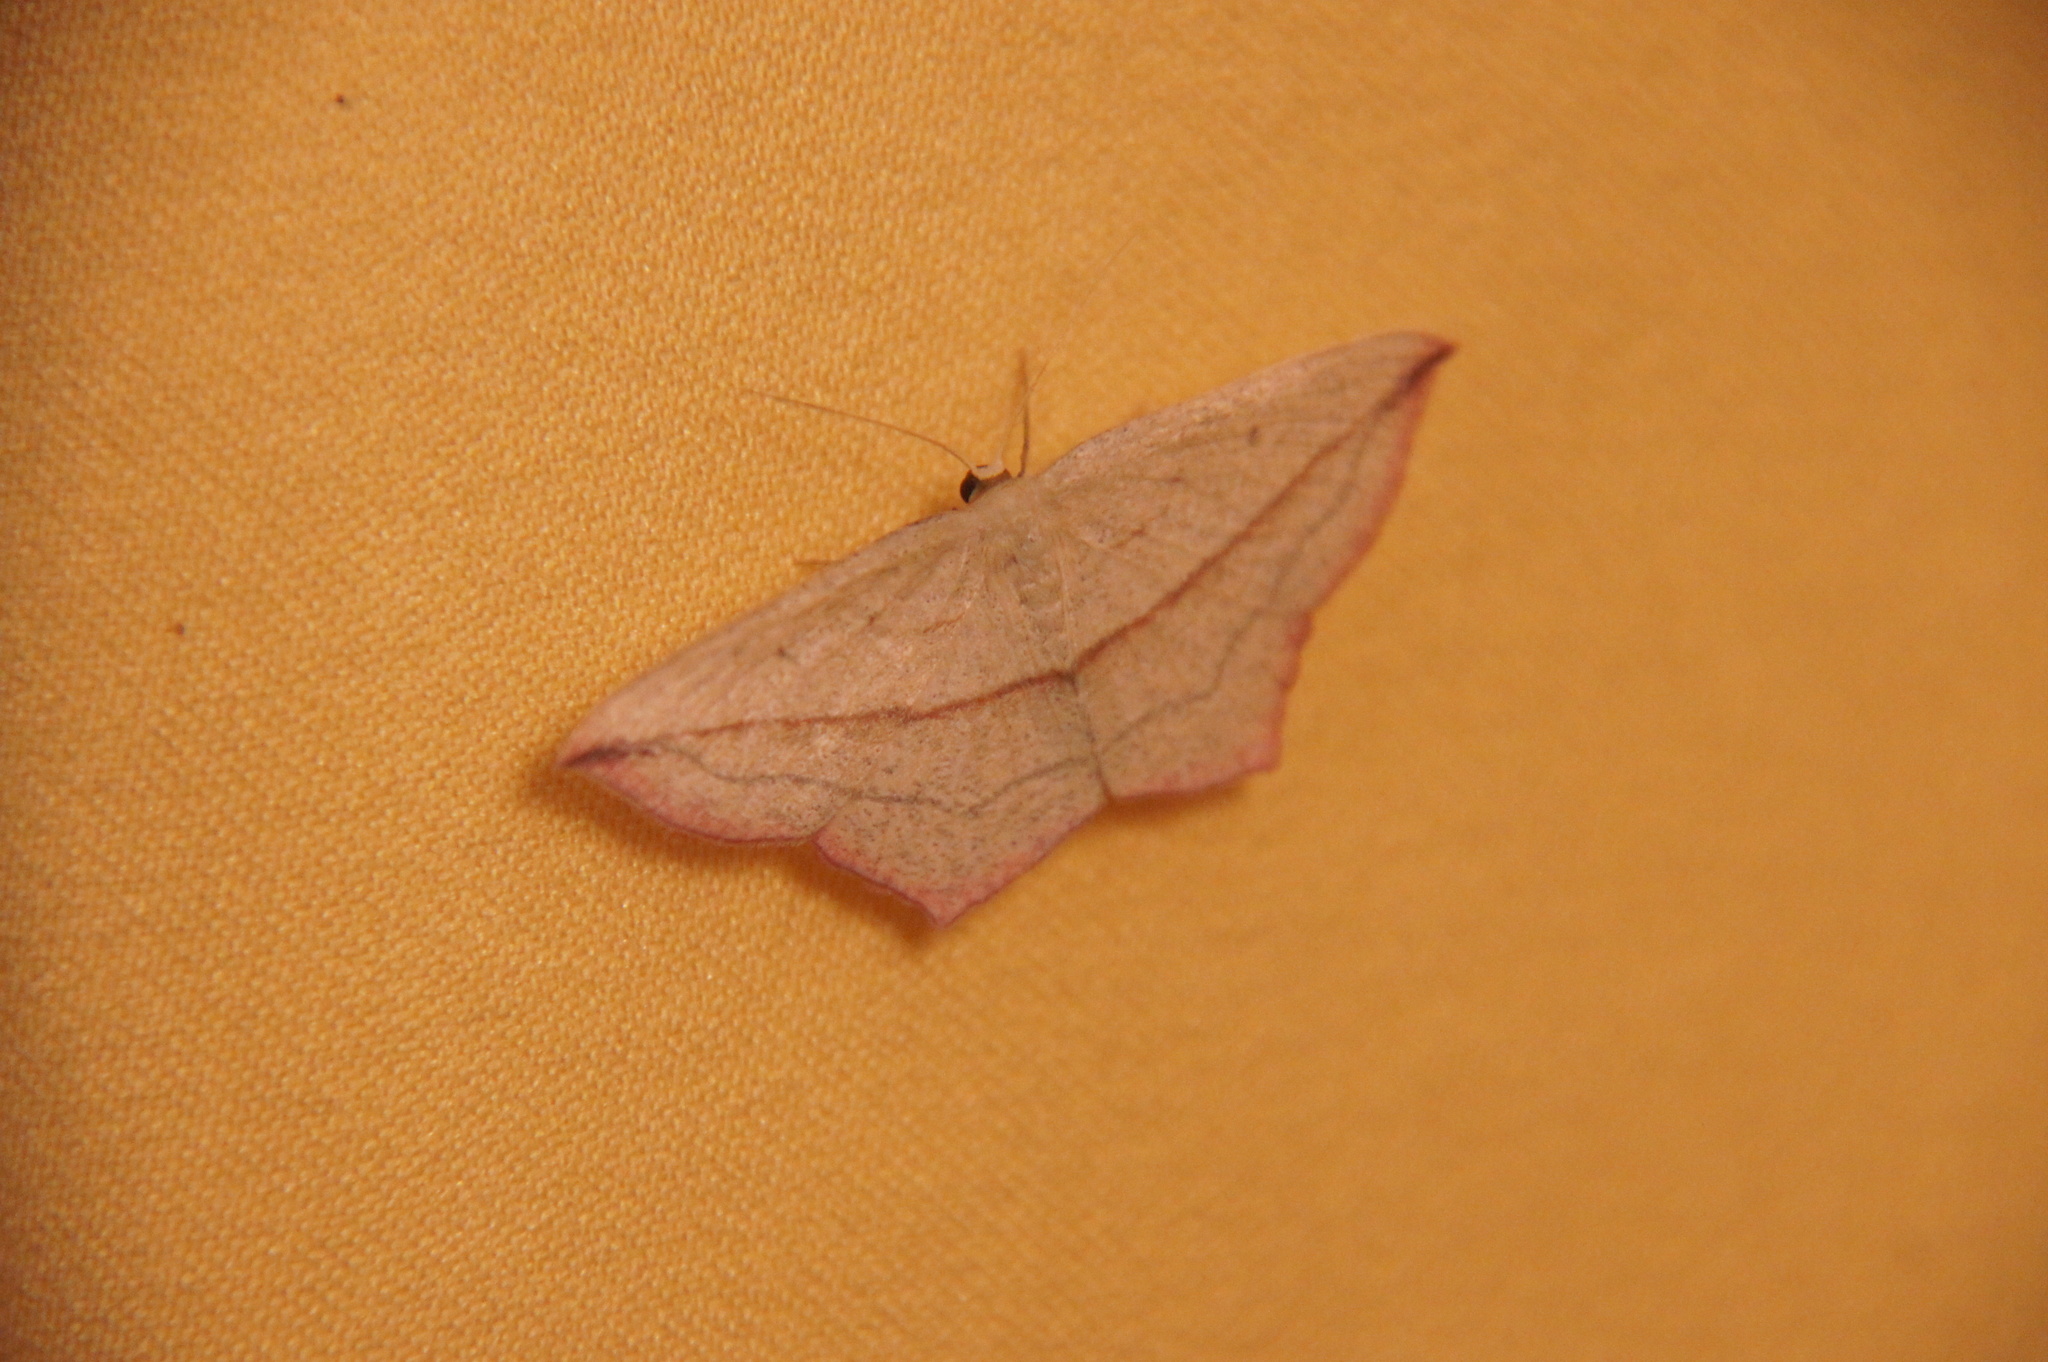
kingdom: Animalia
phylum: Arthropoda
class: Insecta
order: Lepidoptera
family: Geometridae
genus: Timandra
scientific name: Timandra comae
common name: Blood-vein
